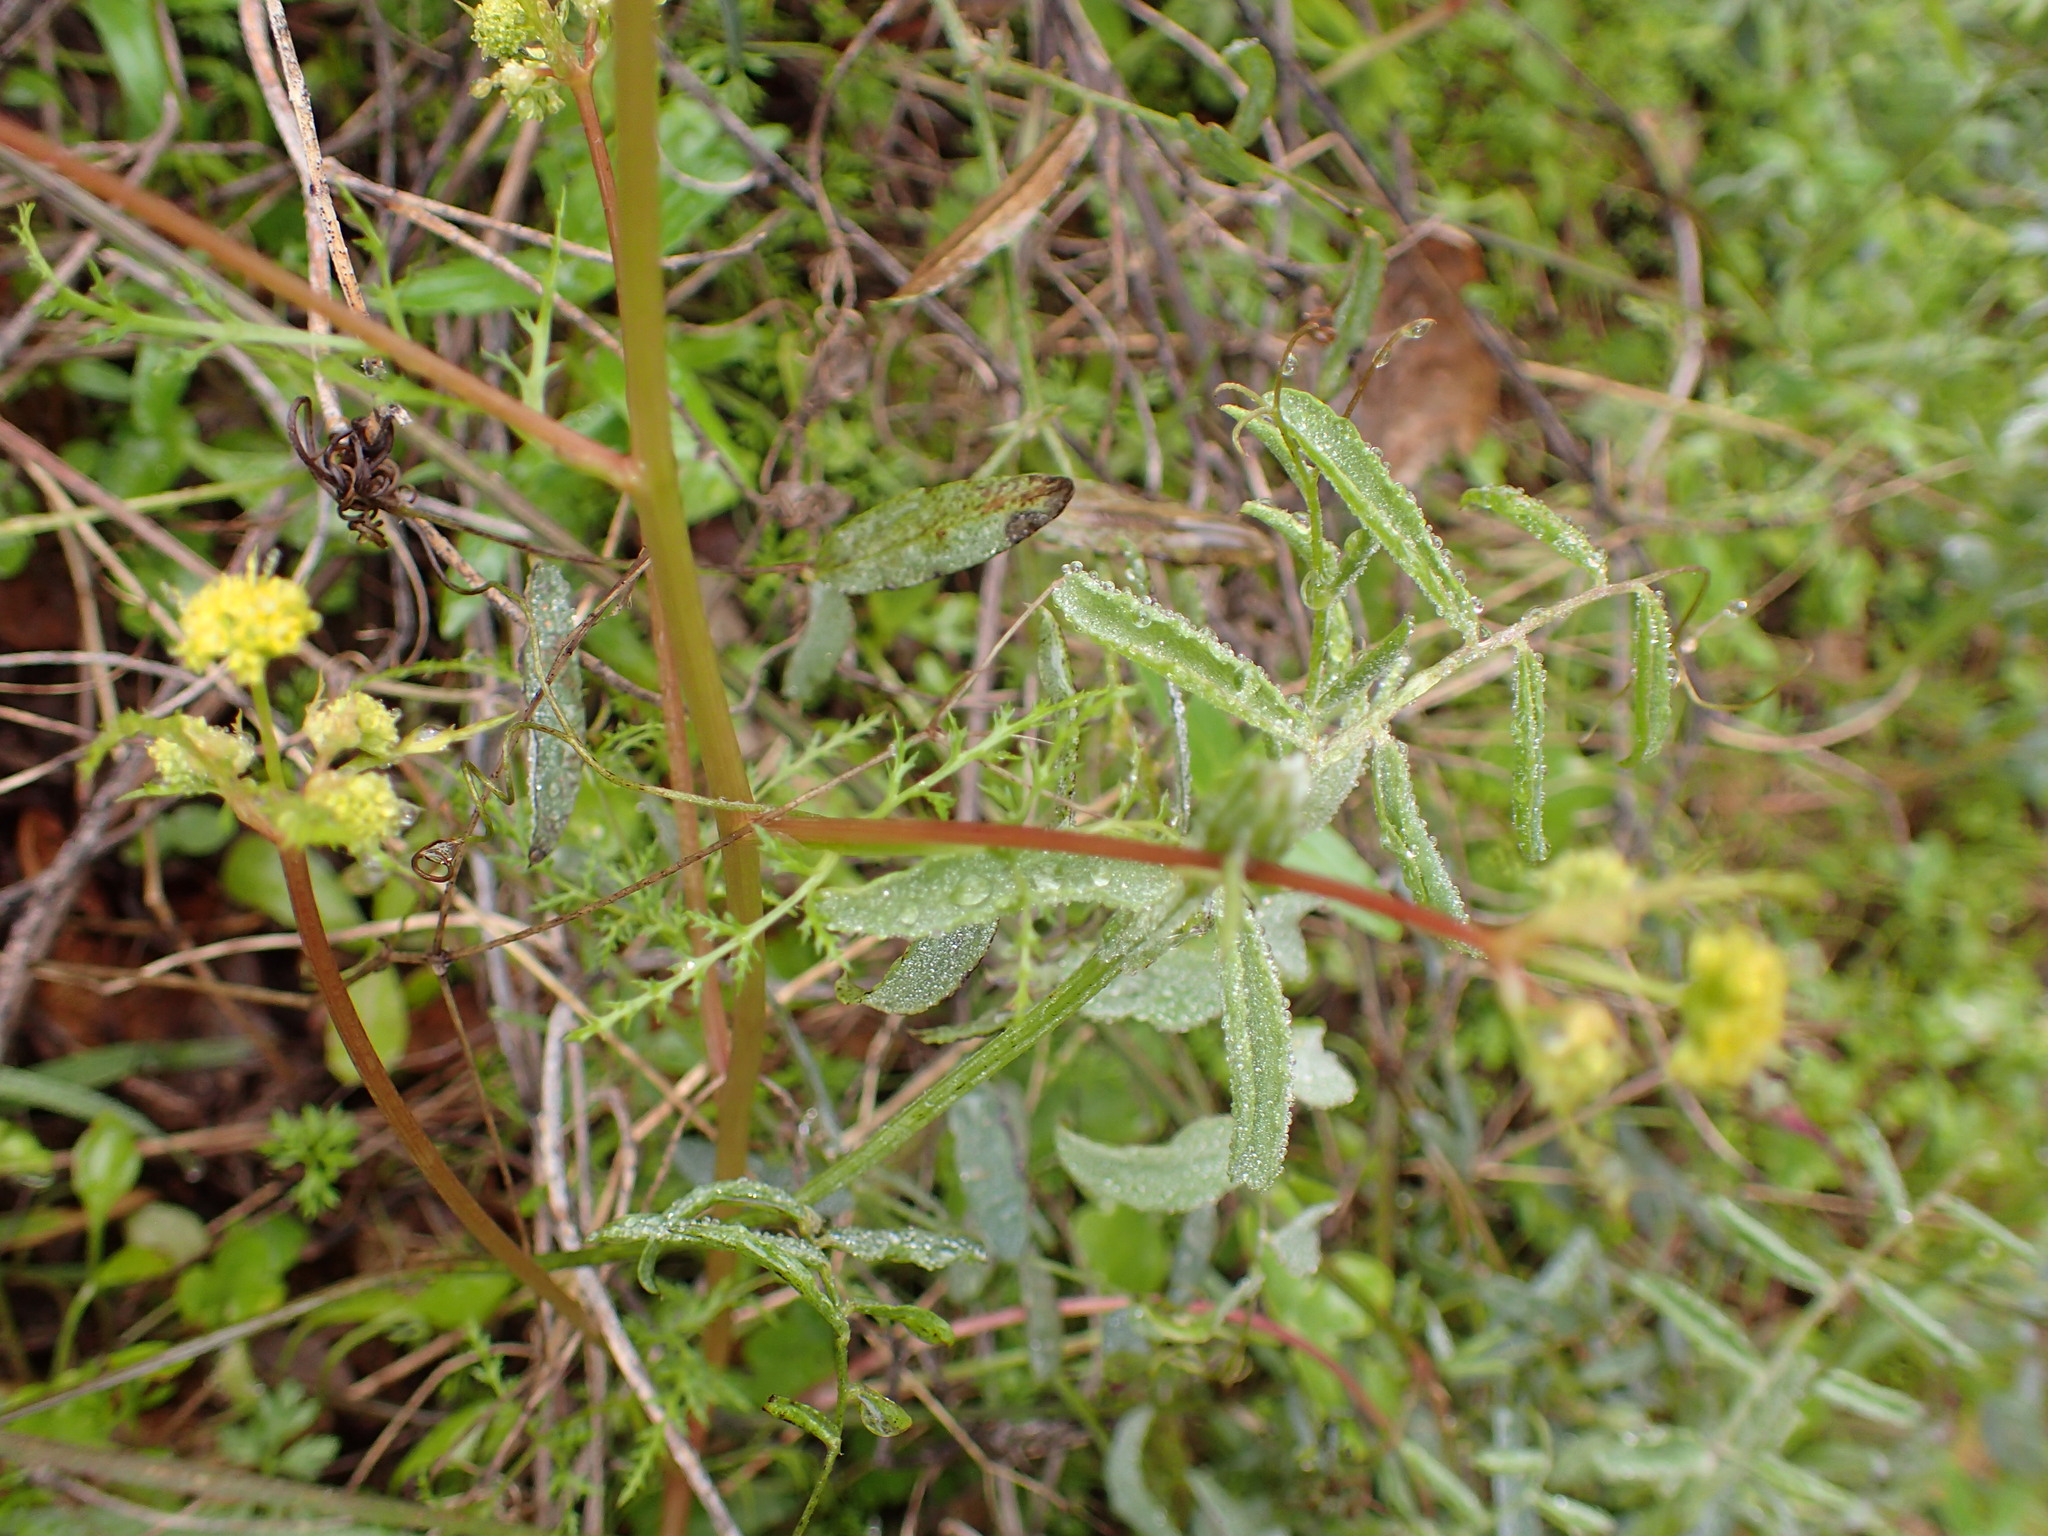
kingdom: Plantae
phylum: Tracheophyta
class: Magnoliopsida
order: Apiales
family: Apiaceae
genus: Sanicula
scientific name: Sanicula tuberosa
